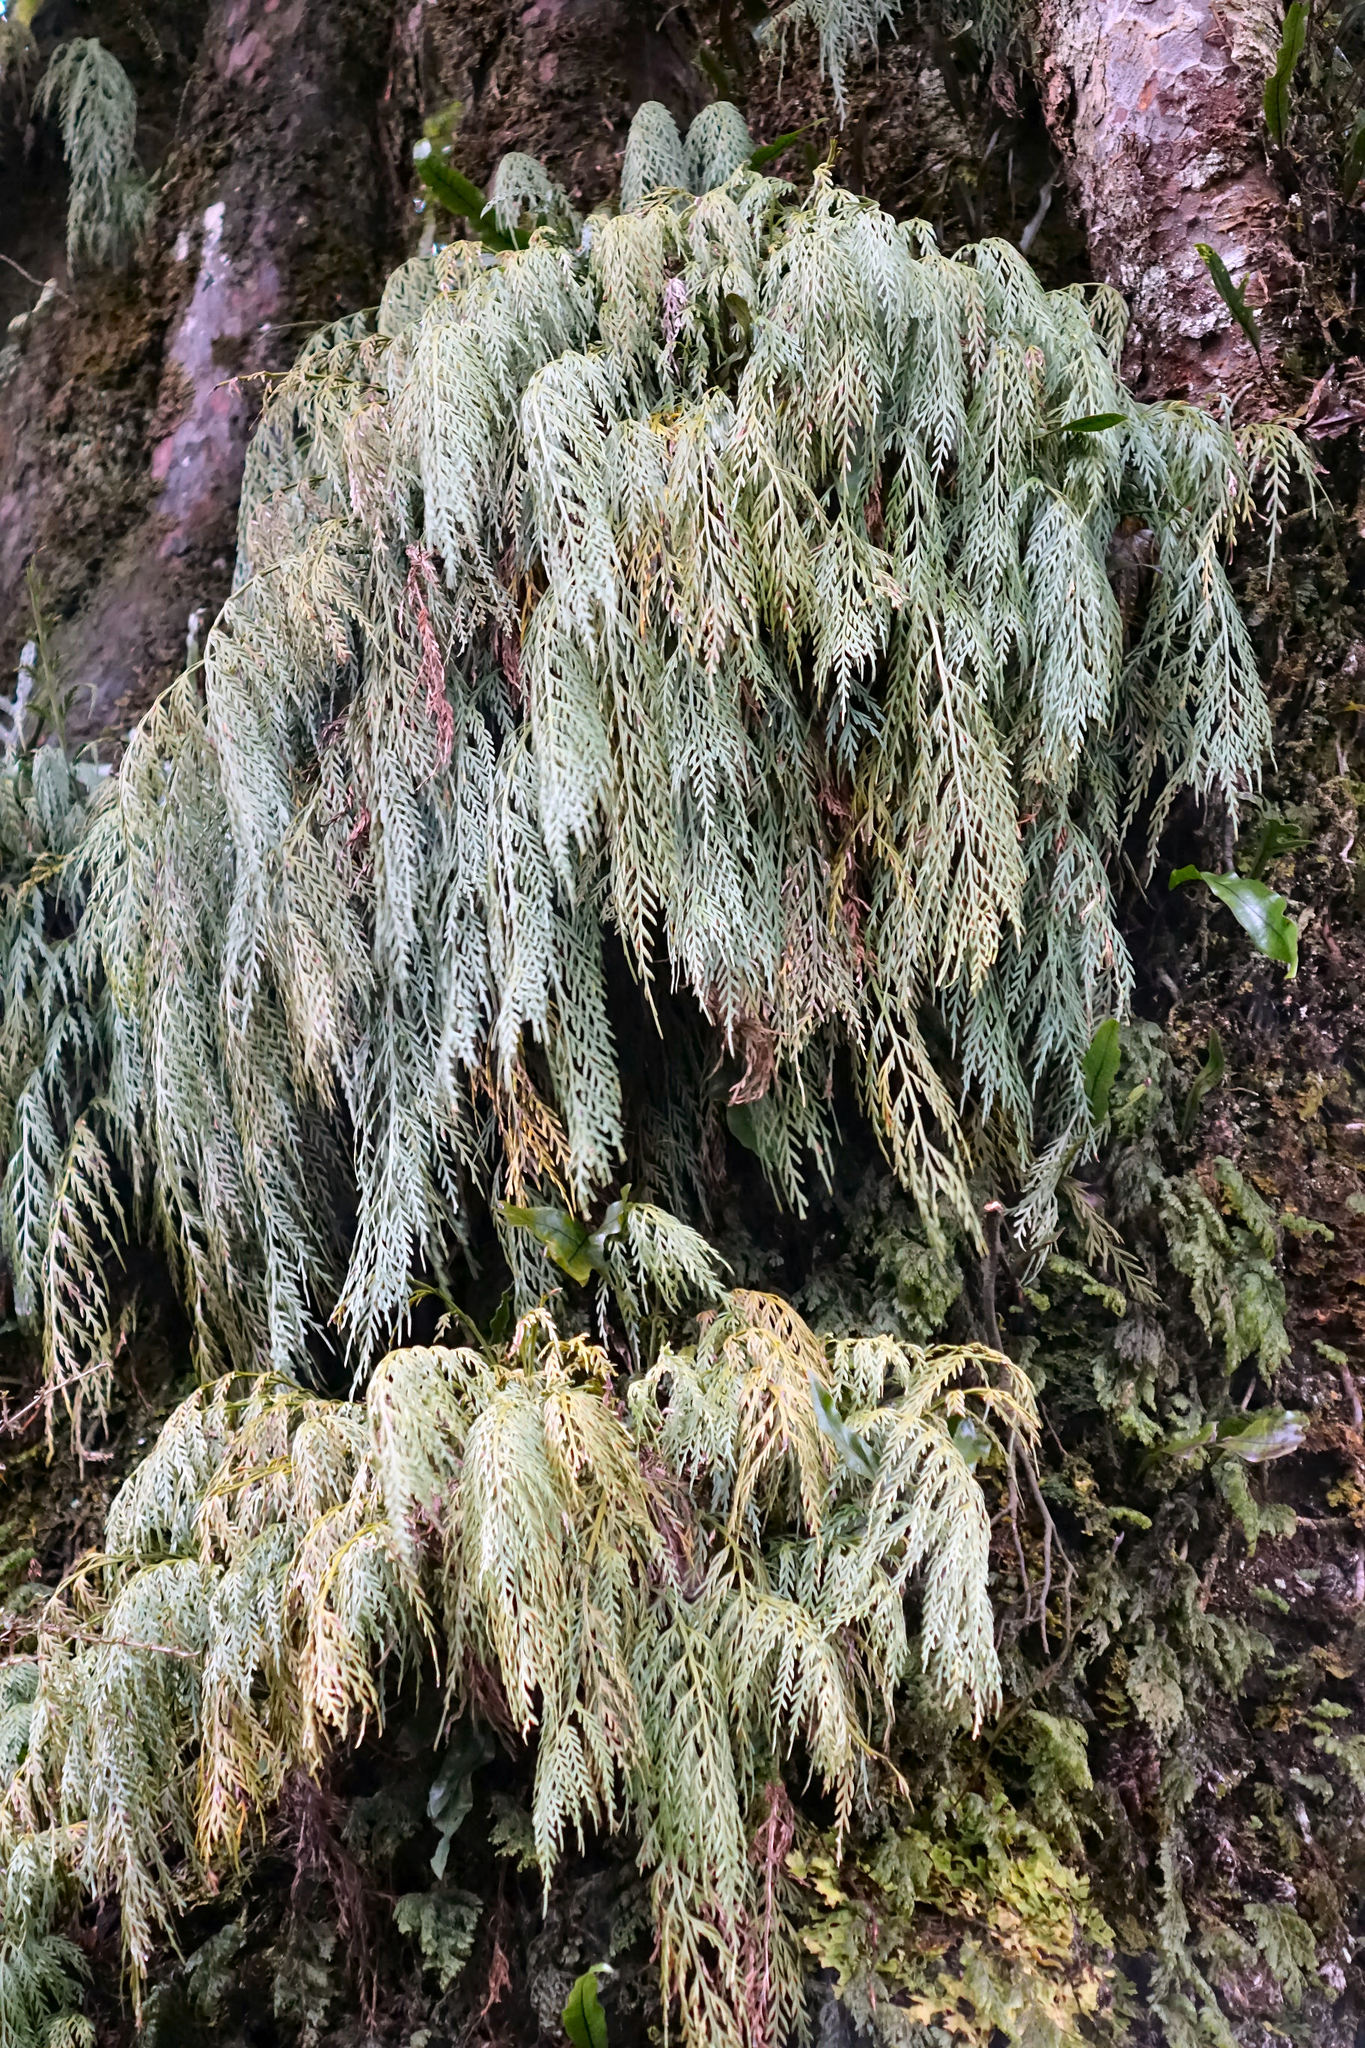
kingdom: Plantae
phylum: Tracheophyta
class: Polypodiopsida
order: Polypodiales
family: Aspleniaceae
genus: Asplenium
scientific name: Asplenium flaccidum
